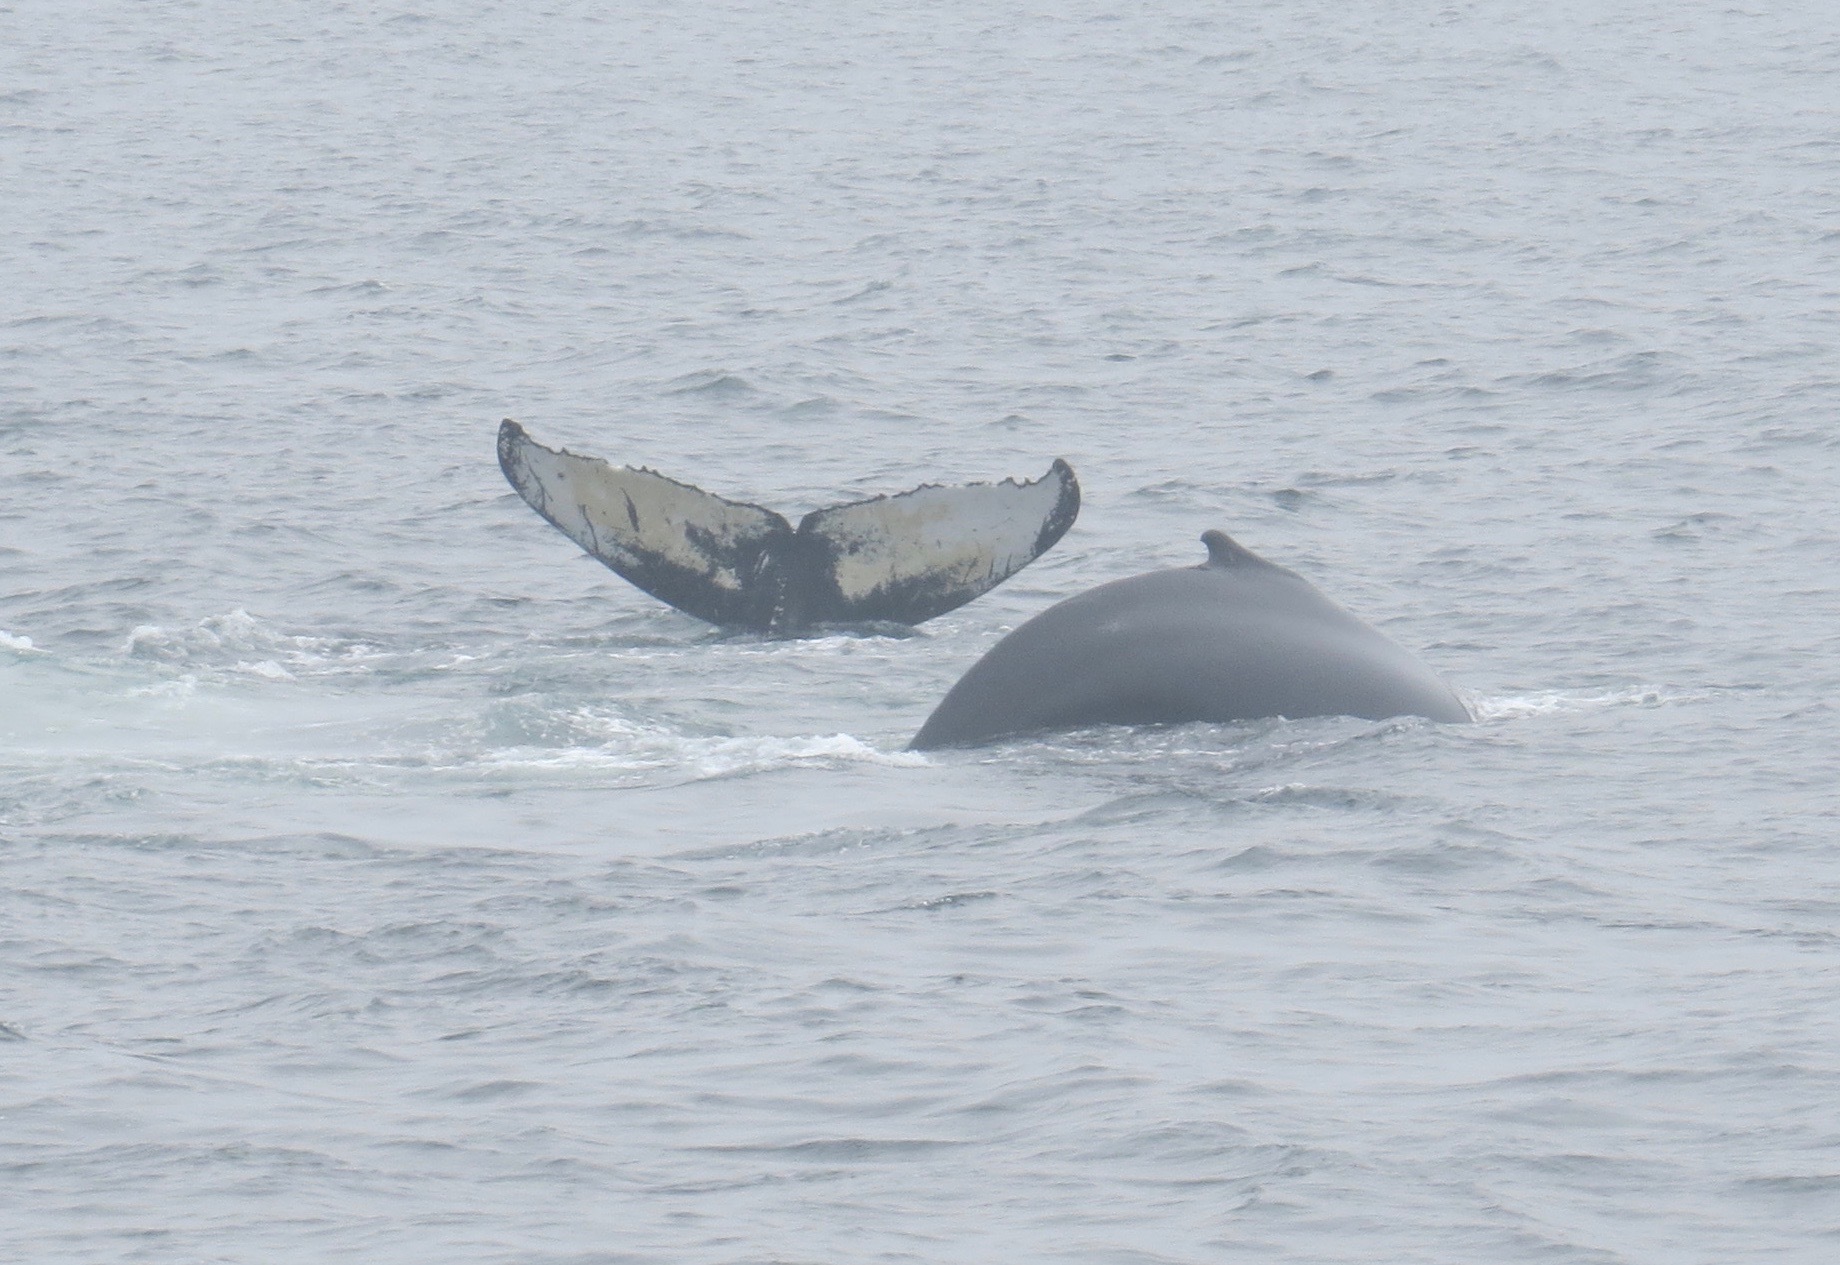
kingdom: Animalia
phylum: Chordata
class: Mammalia
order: Cetacea
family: Balaenopteridae
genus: Megaptera
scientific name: Megaptera novaeangliae
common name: Humpback whale
